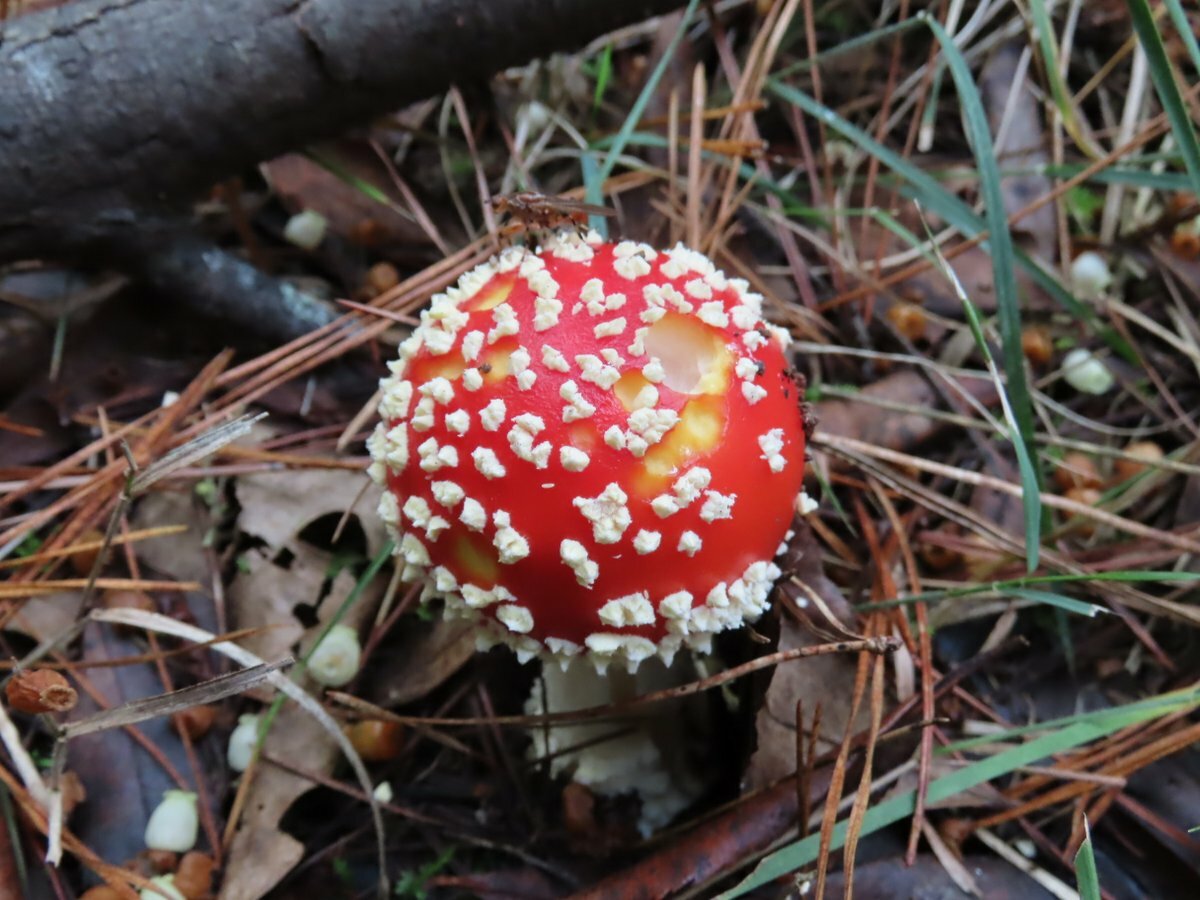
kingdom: Fungi
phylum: Basidiomycota
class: Agaricomycetes
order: Agaricales
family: Amanitaceae
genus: Amanita
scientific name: Amanita muscaria
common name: Fly agaric
